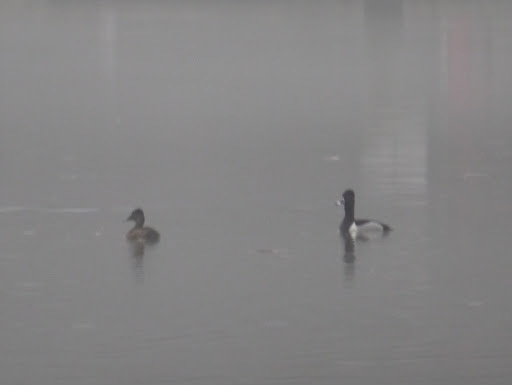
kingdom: Animalia
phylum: Chordata
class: Aves
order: Anseriformes
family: Anatidae
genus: Aythya
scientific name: Aythya collaris
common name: Ring-necked duck
